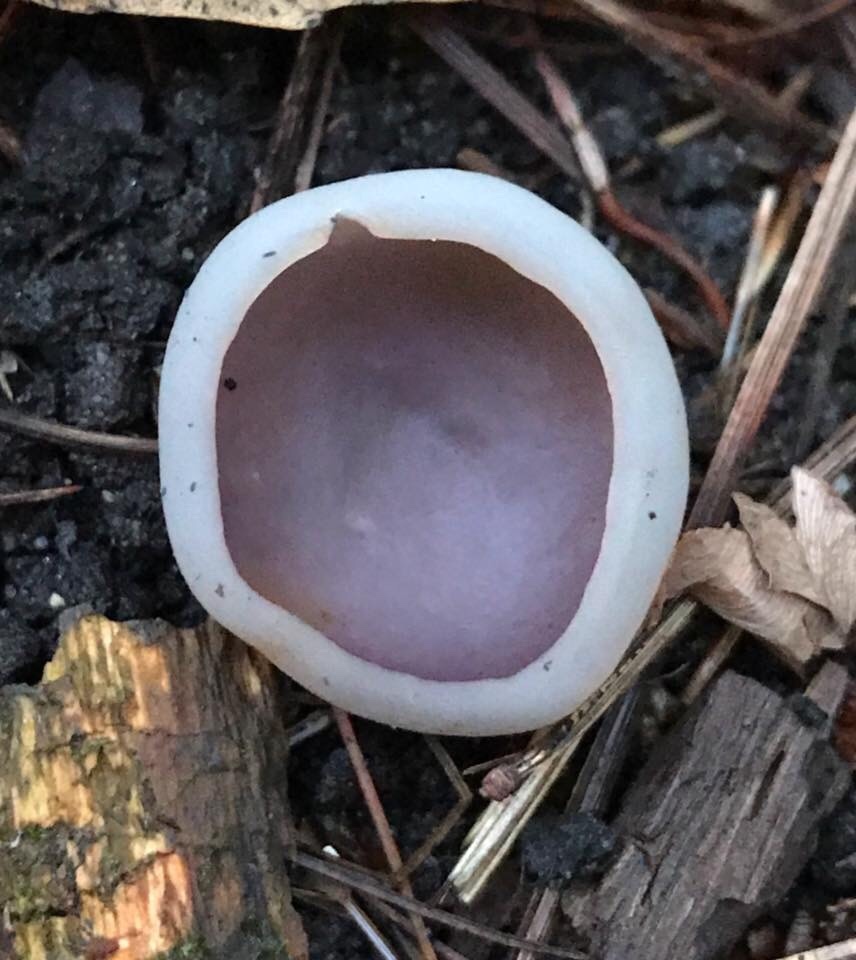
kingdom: Fungi
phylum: Ascomycota
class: Pezizomycetes
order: Pezizales
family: Pezizaceae
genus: Paragalactinia
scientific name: Paragalactinia michelii
